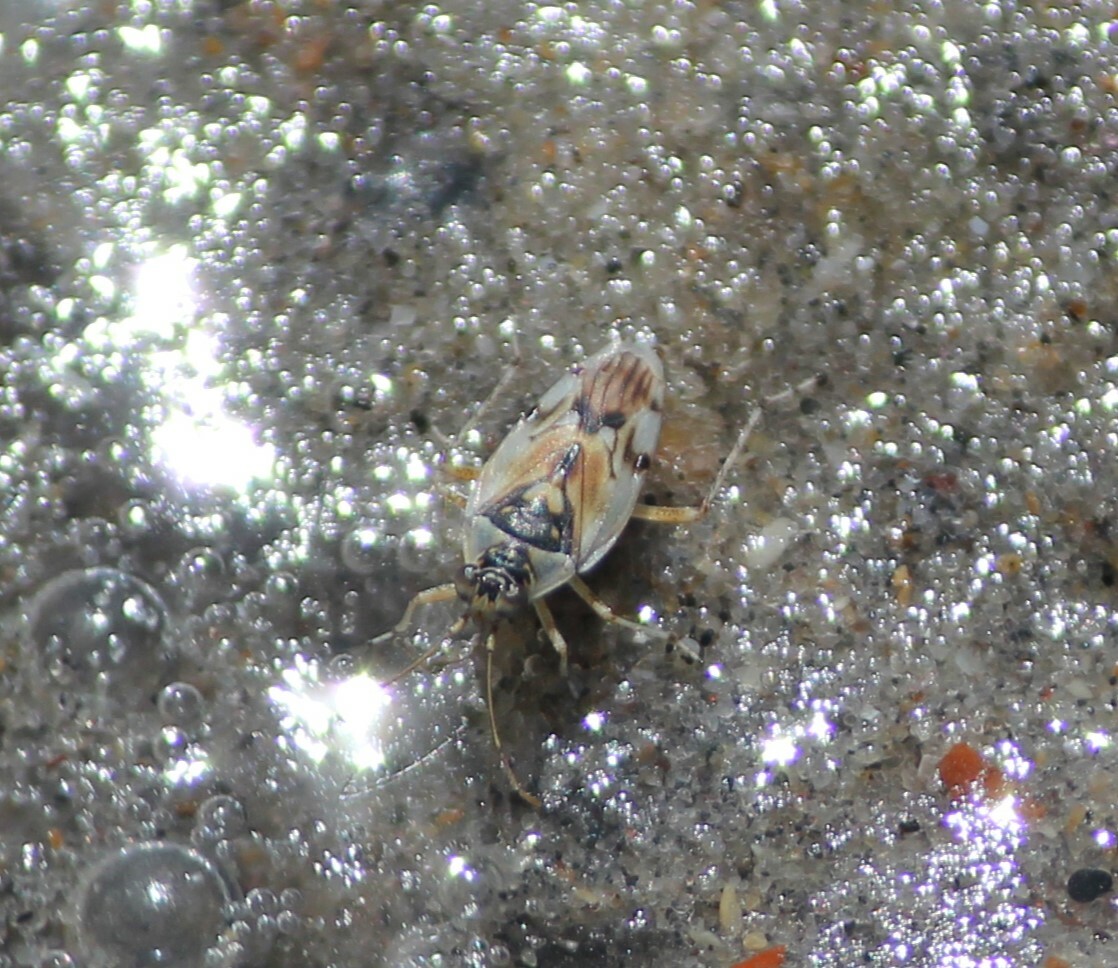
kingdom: Animalia
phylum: Arthropoda
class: Insecta
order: Hemiptera
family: Saldidae
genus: Pentacora
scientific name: Pentacora sphacelata
